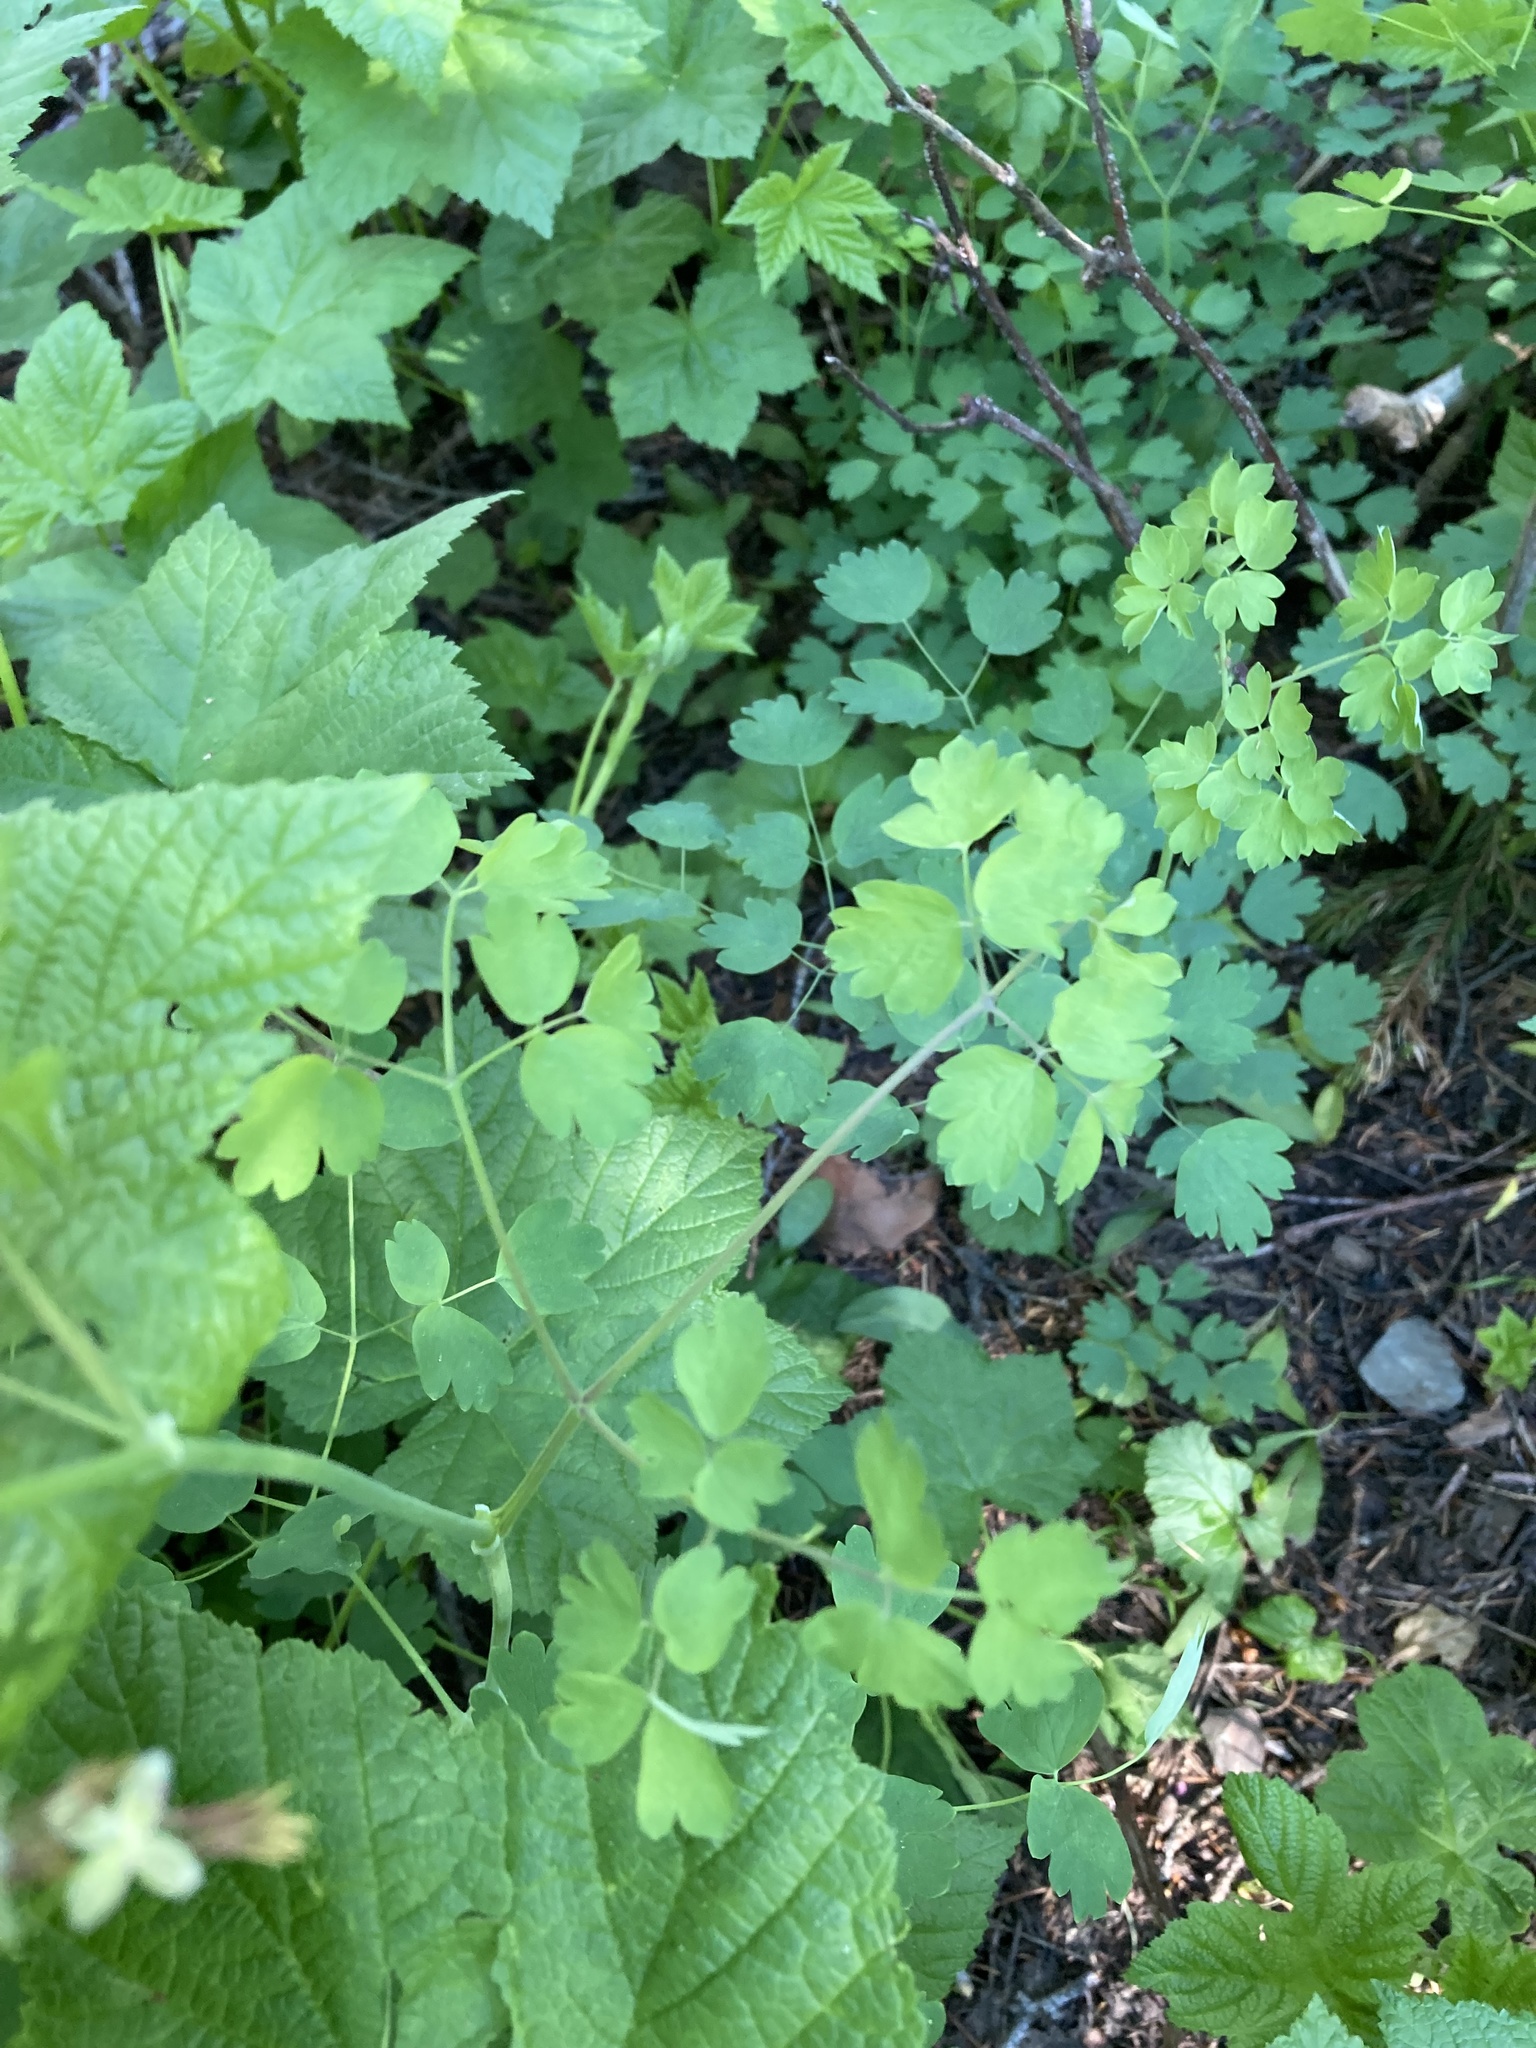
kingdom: Plantae
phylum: Tracheophyta
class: Magnoliopsida
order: Ranunculales
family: Ranunculaceae
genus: Thalictrum
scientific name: Thalictrum occidentale
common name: Western meadow-rue
